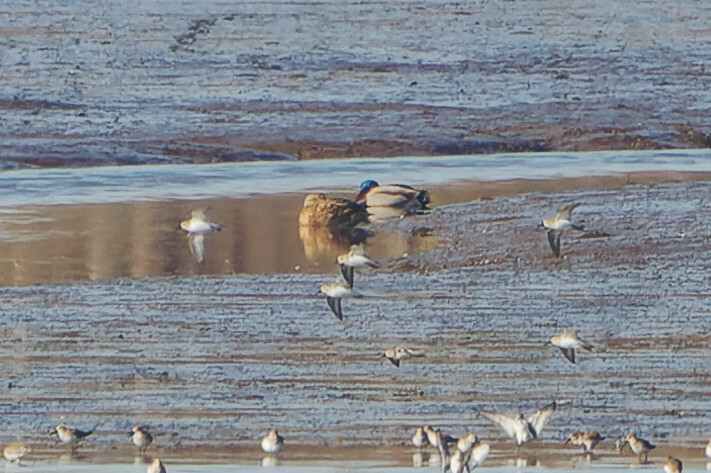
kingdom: Animalia
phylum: Chordata
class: Aves
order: Charadriiformes
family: Scolopacidae
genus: Calidris
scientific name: Calidris alpina
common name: Dunlin
